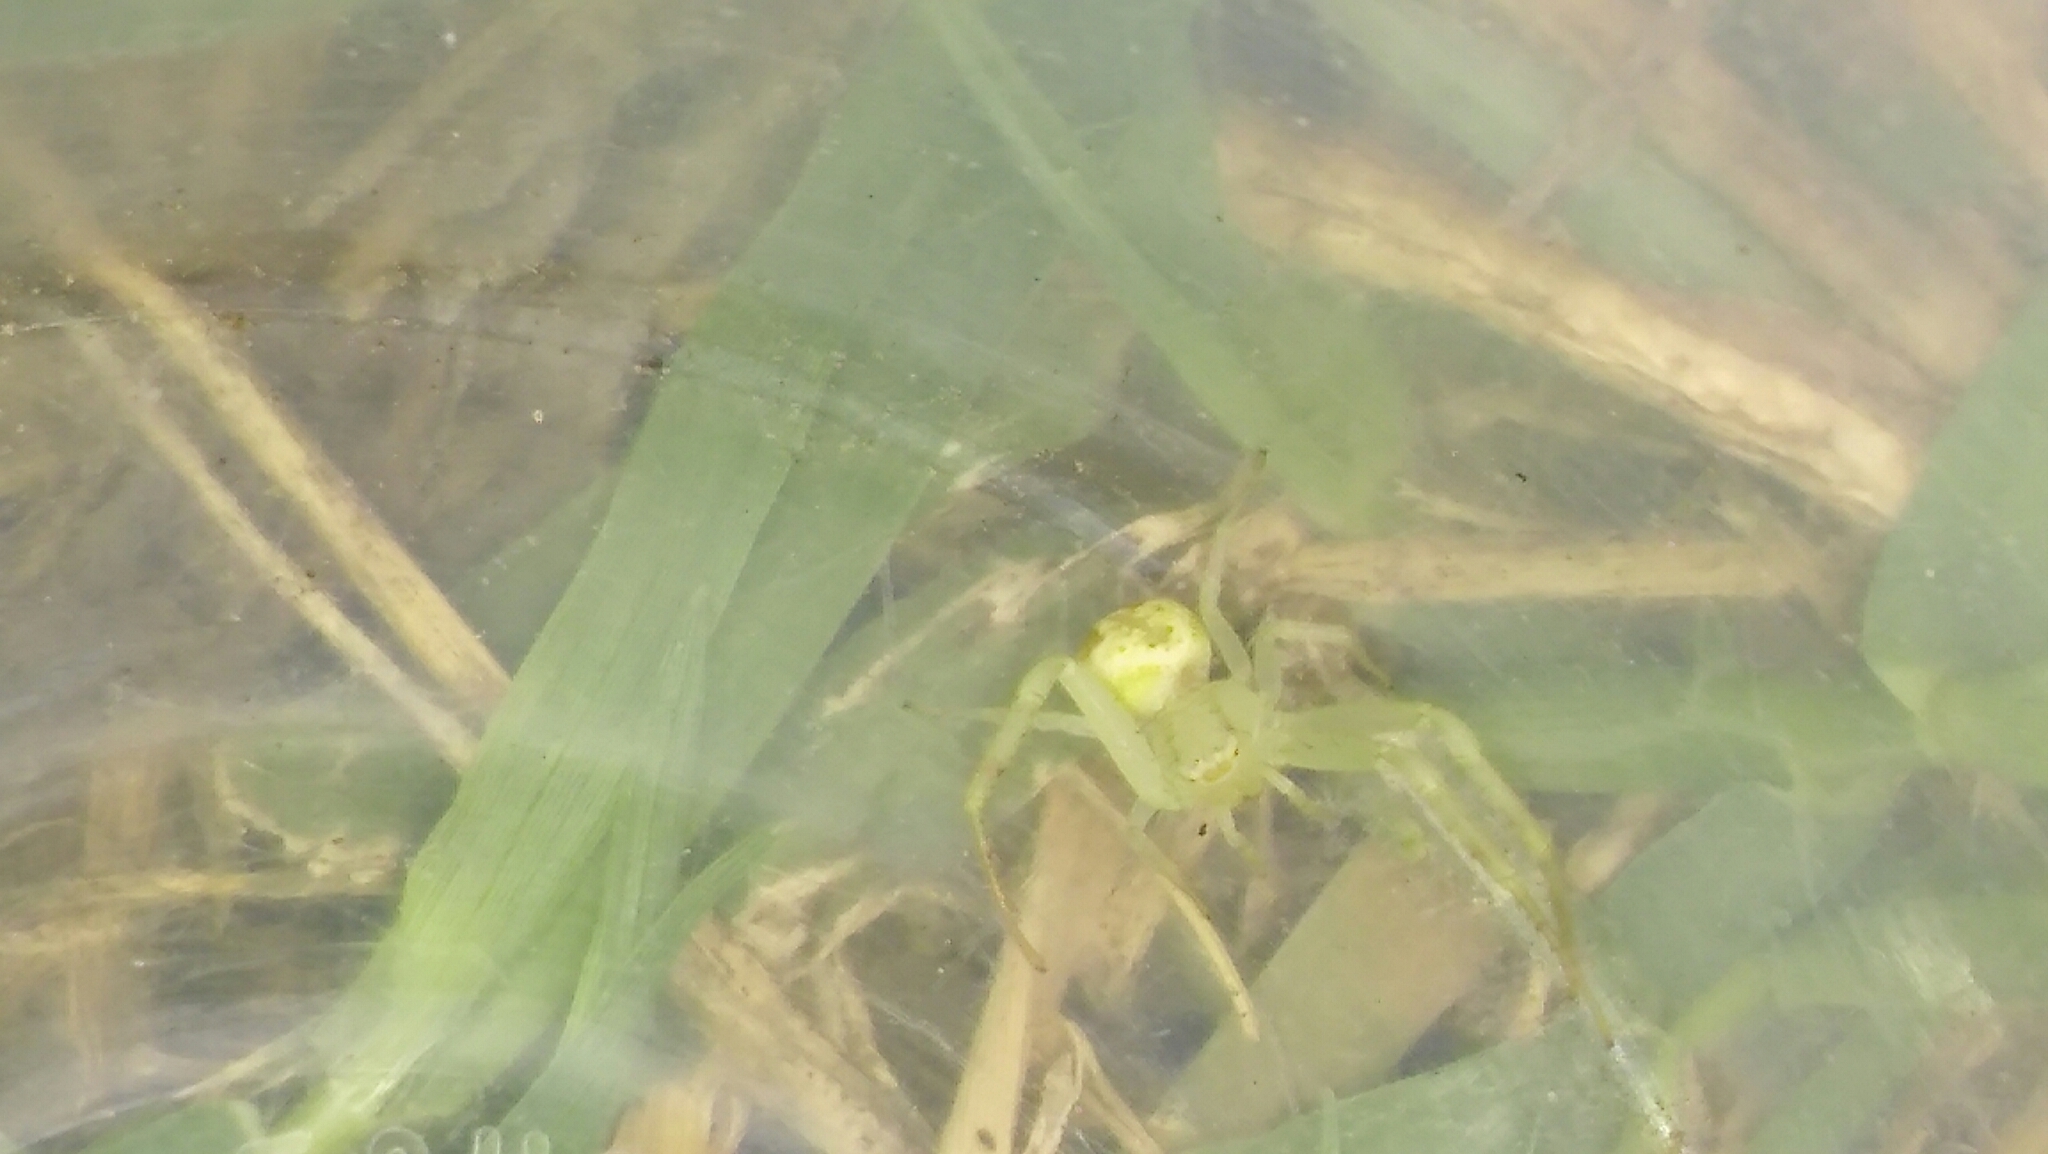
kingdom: Animalia
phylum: Arthropoda
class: Arachnida
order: Araneae
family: Thomisidae
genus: Misumenops
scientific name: Misumenops
